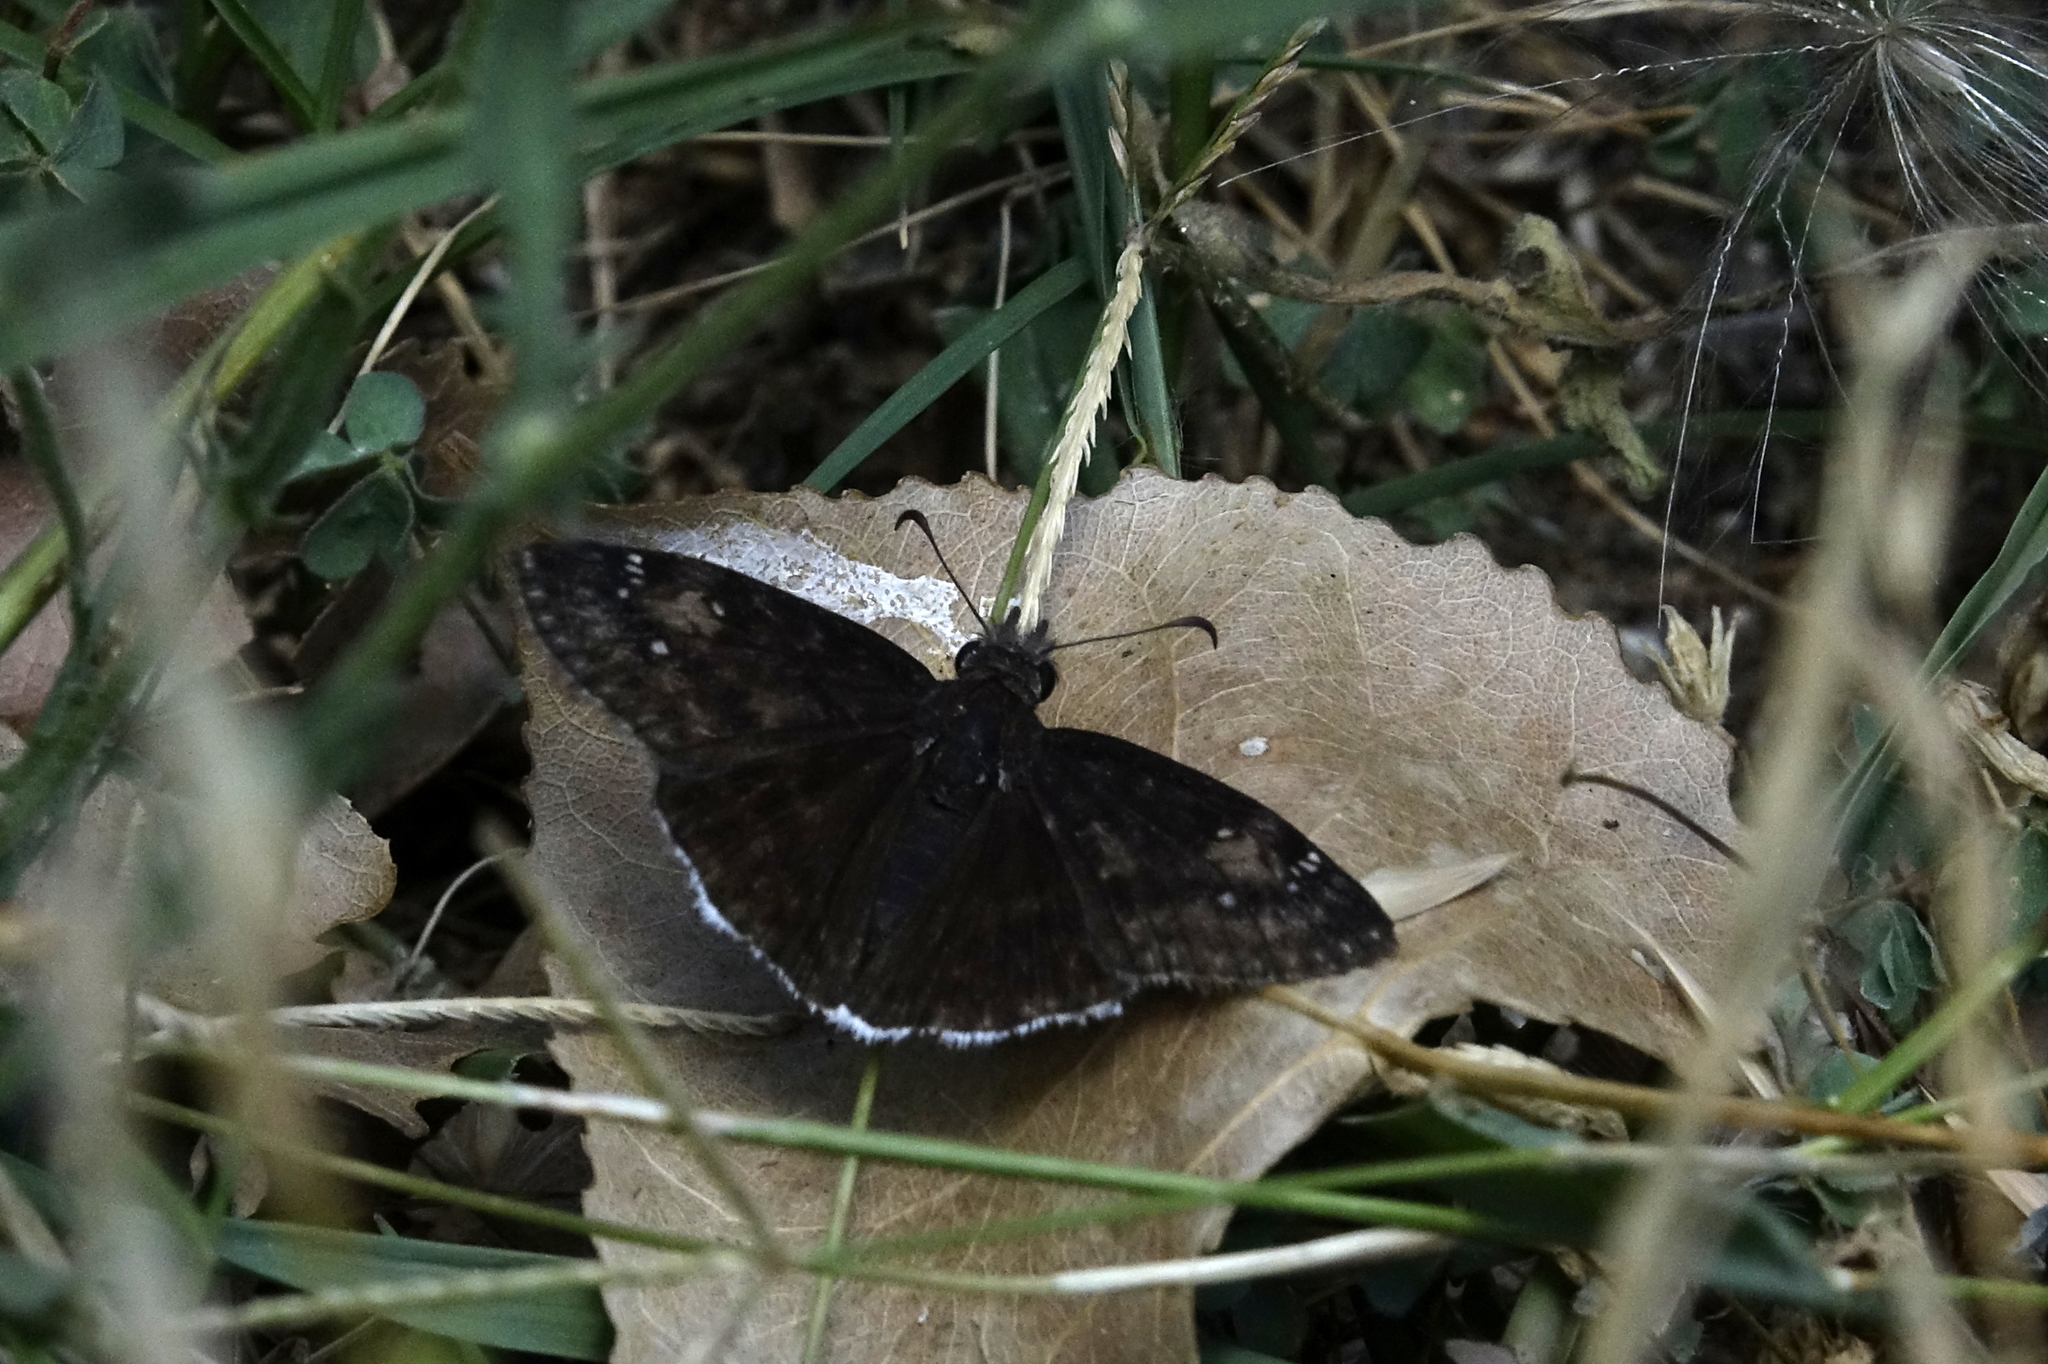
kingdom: Animalia
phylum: Arthropoda
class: Insecta
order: Lepidoptera
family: Hesperiidae
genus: Erynnis
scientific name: Erynnis funeralis
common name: Funereal duskywing
